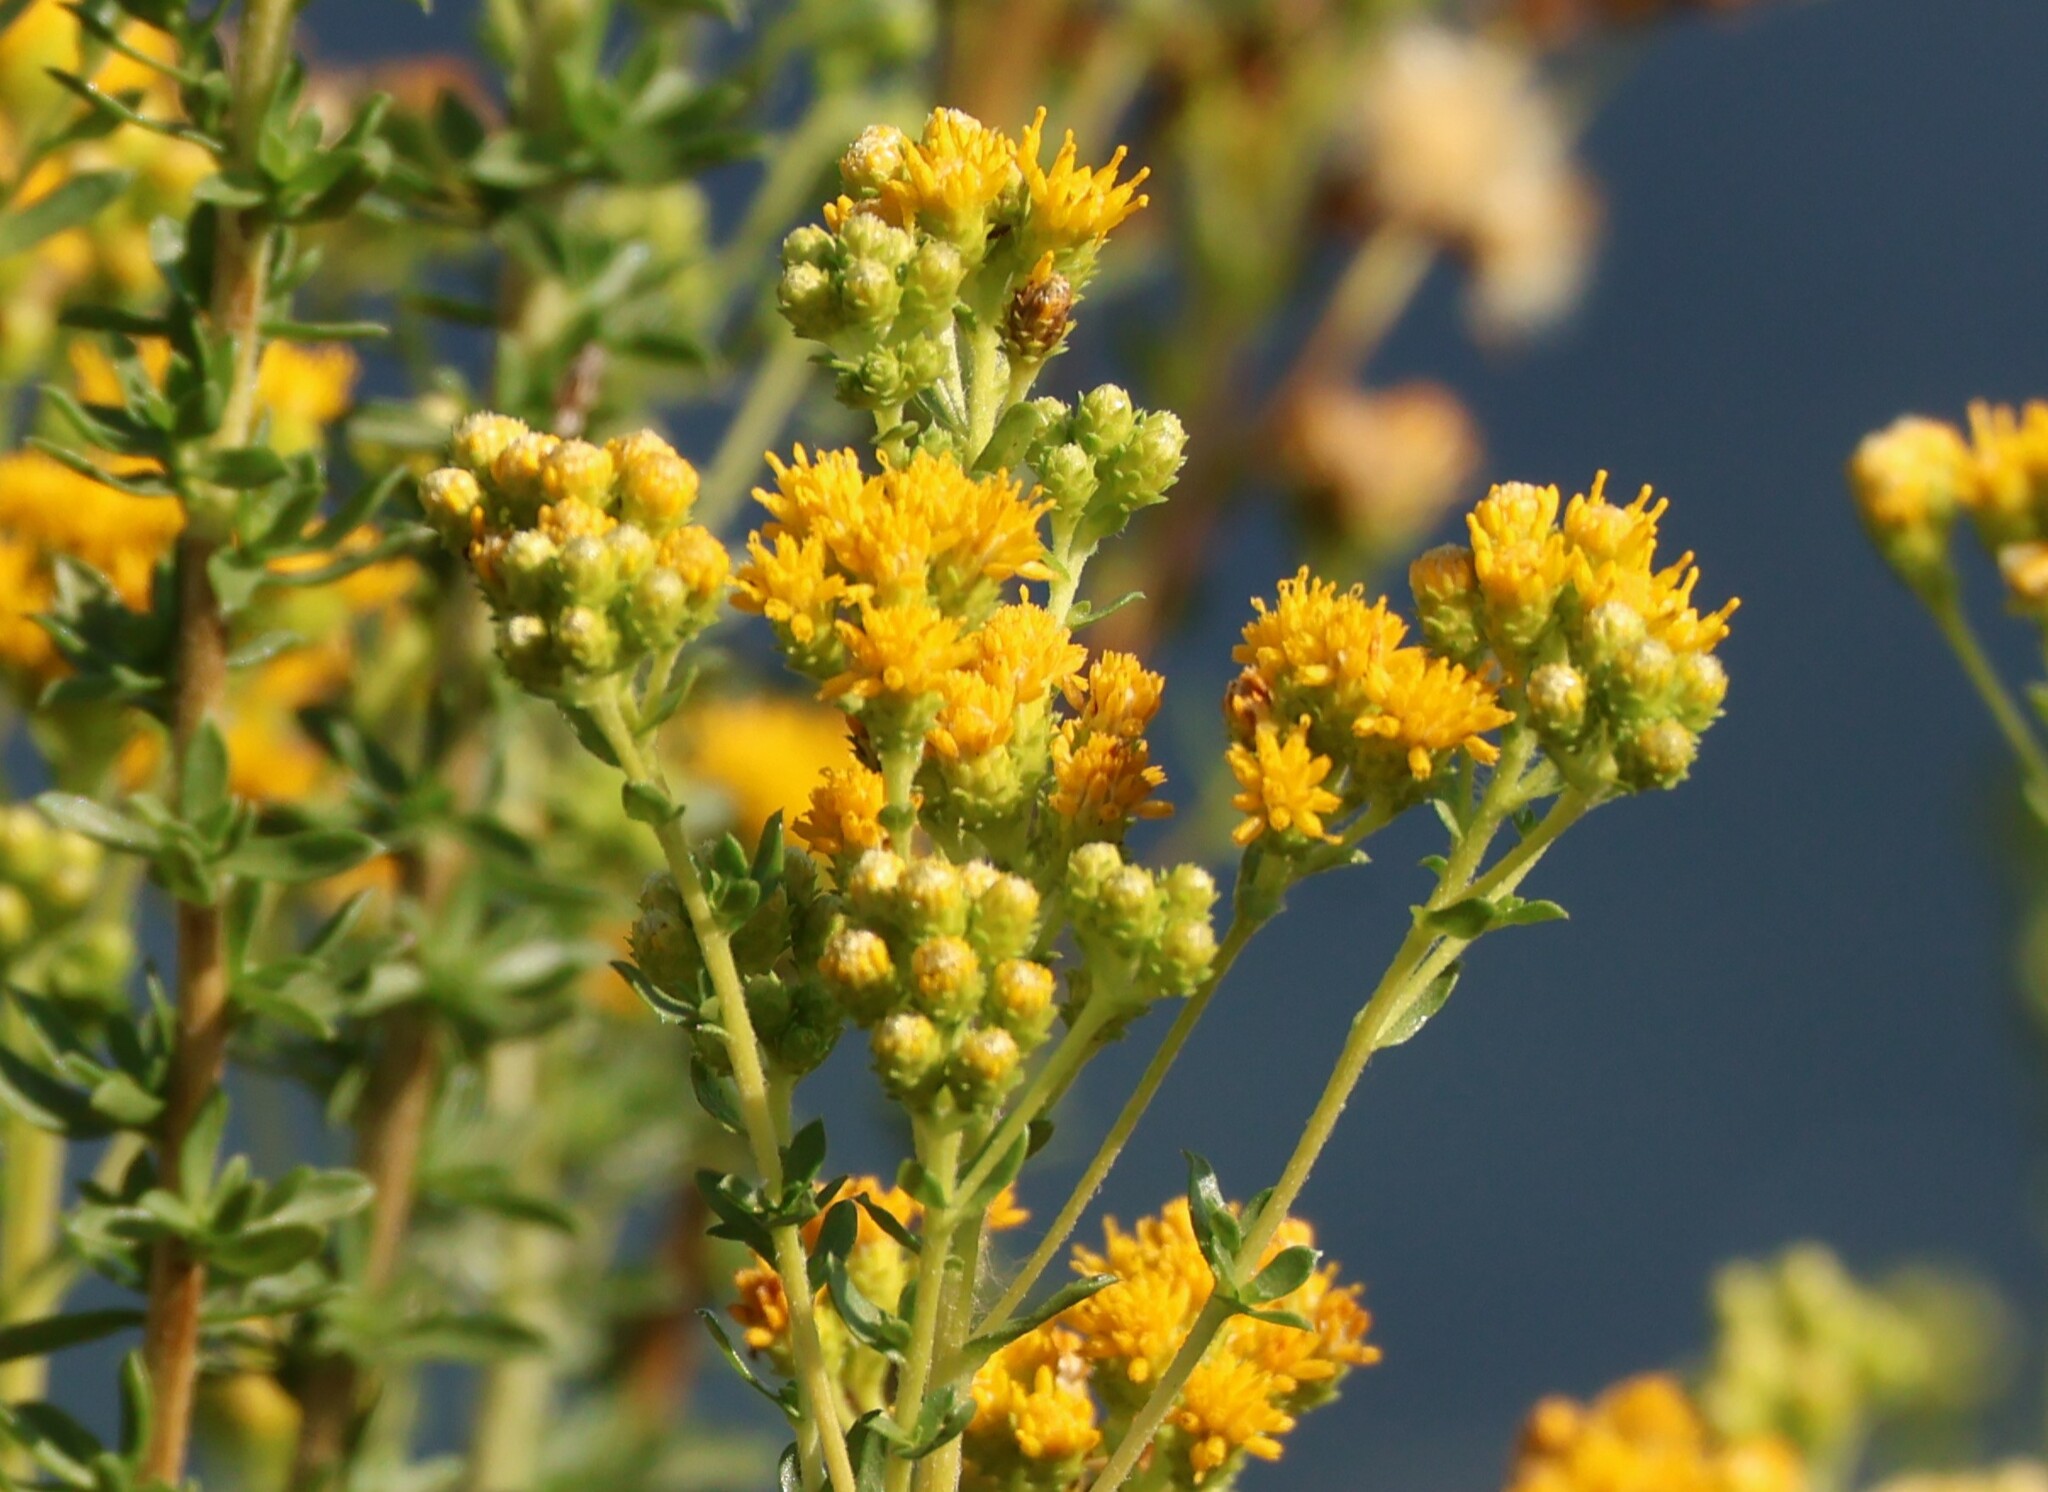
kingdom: Plantae
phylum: Tracheophyta
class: Magnoliopsida
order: Asterales
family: Asteraceae
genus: Isocoma
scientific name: Isocoma menziesii
